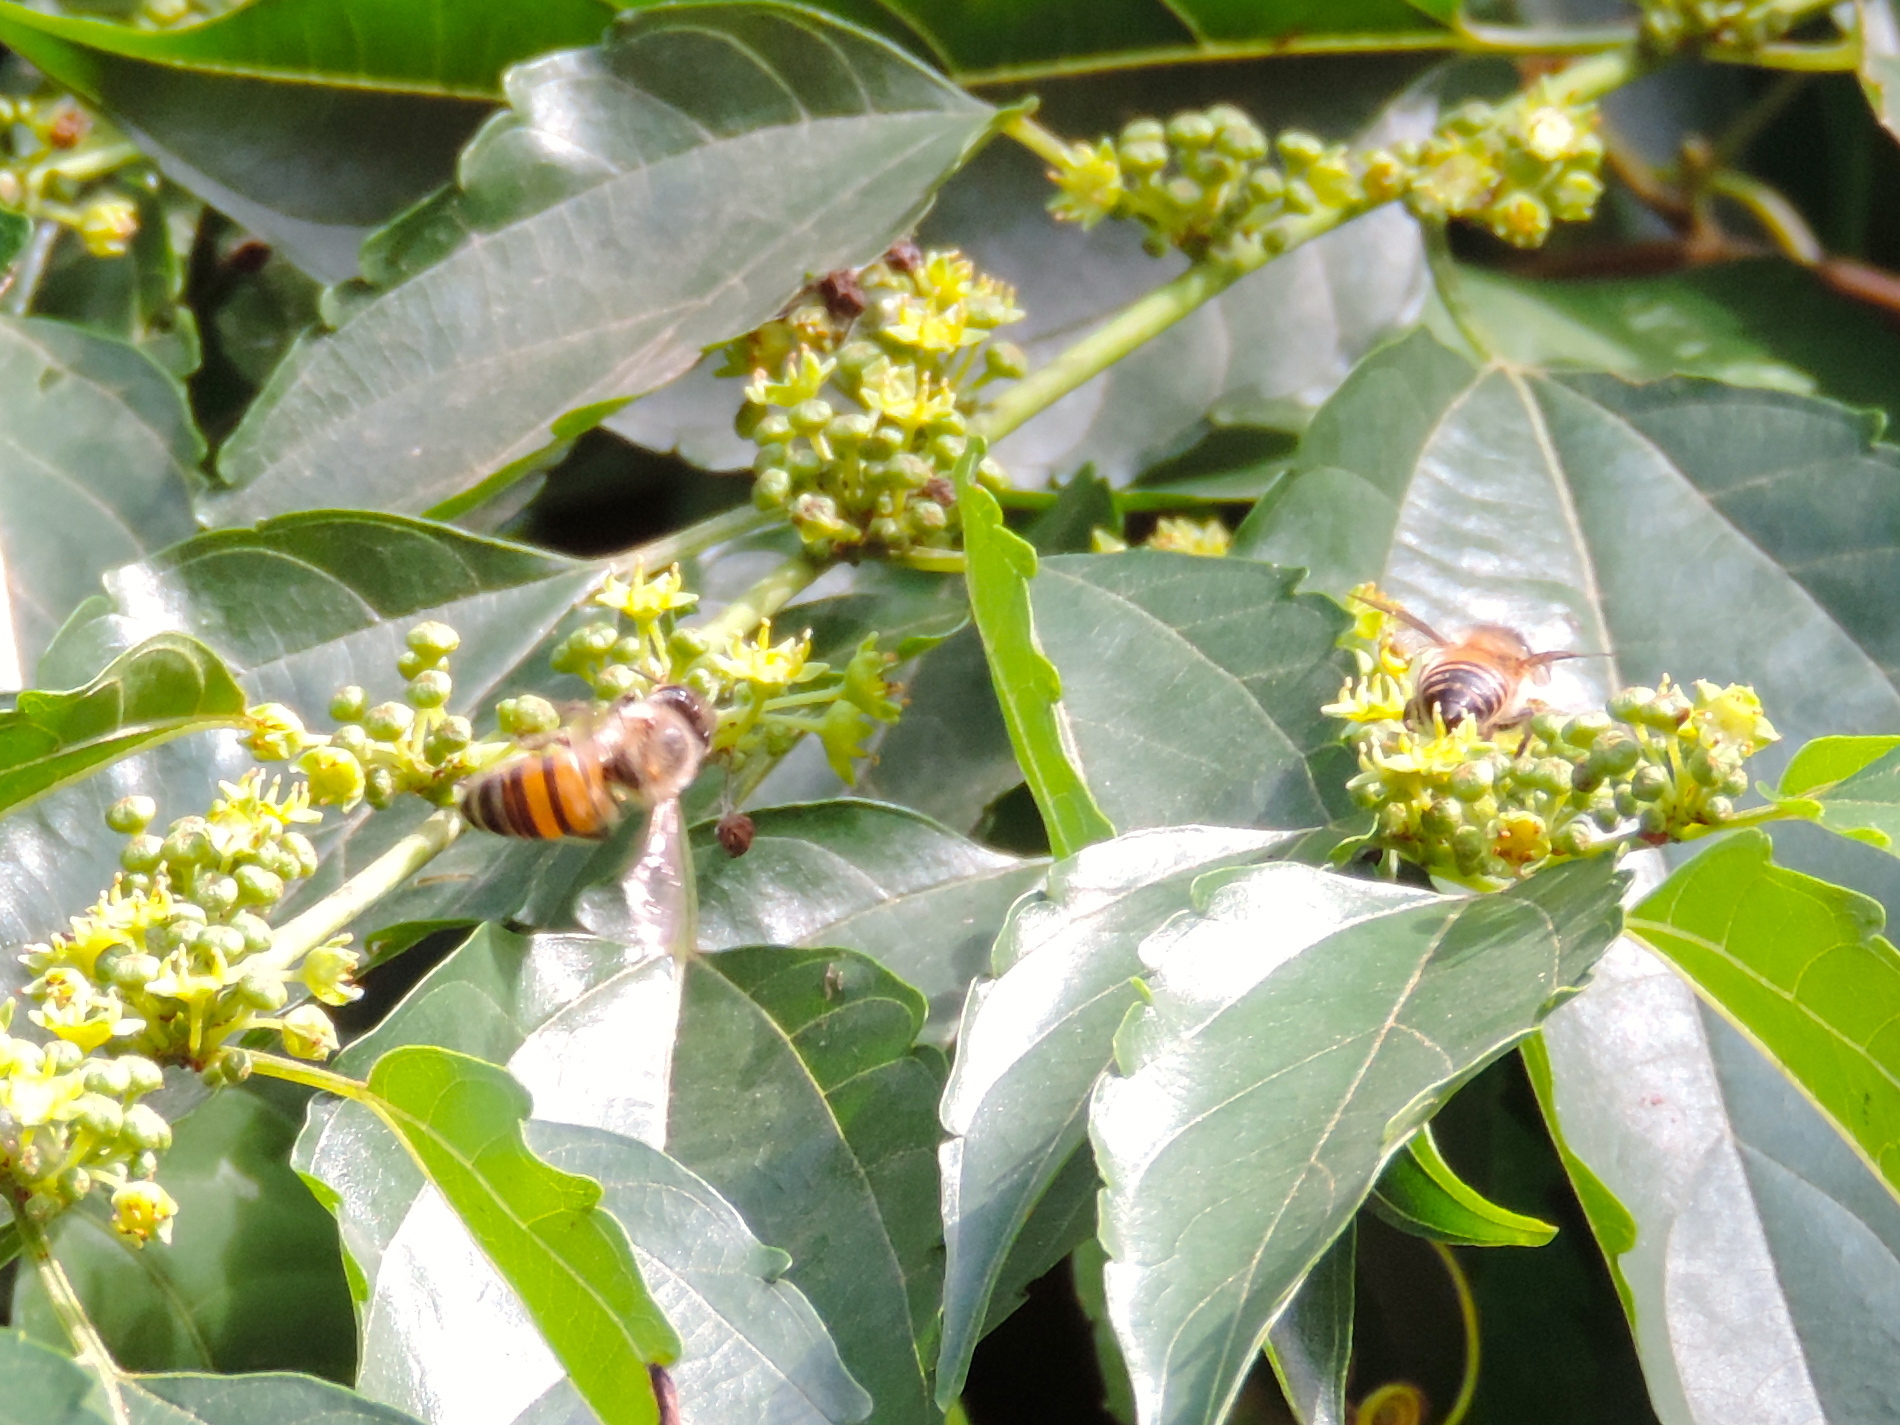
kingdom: Plantae
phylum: Tracheophyta
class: Magnoliopsida
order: Rosales
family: Rhamnaceae
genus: Colubrina
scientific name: Colubrina triflora
